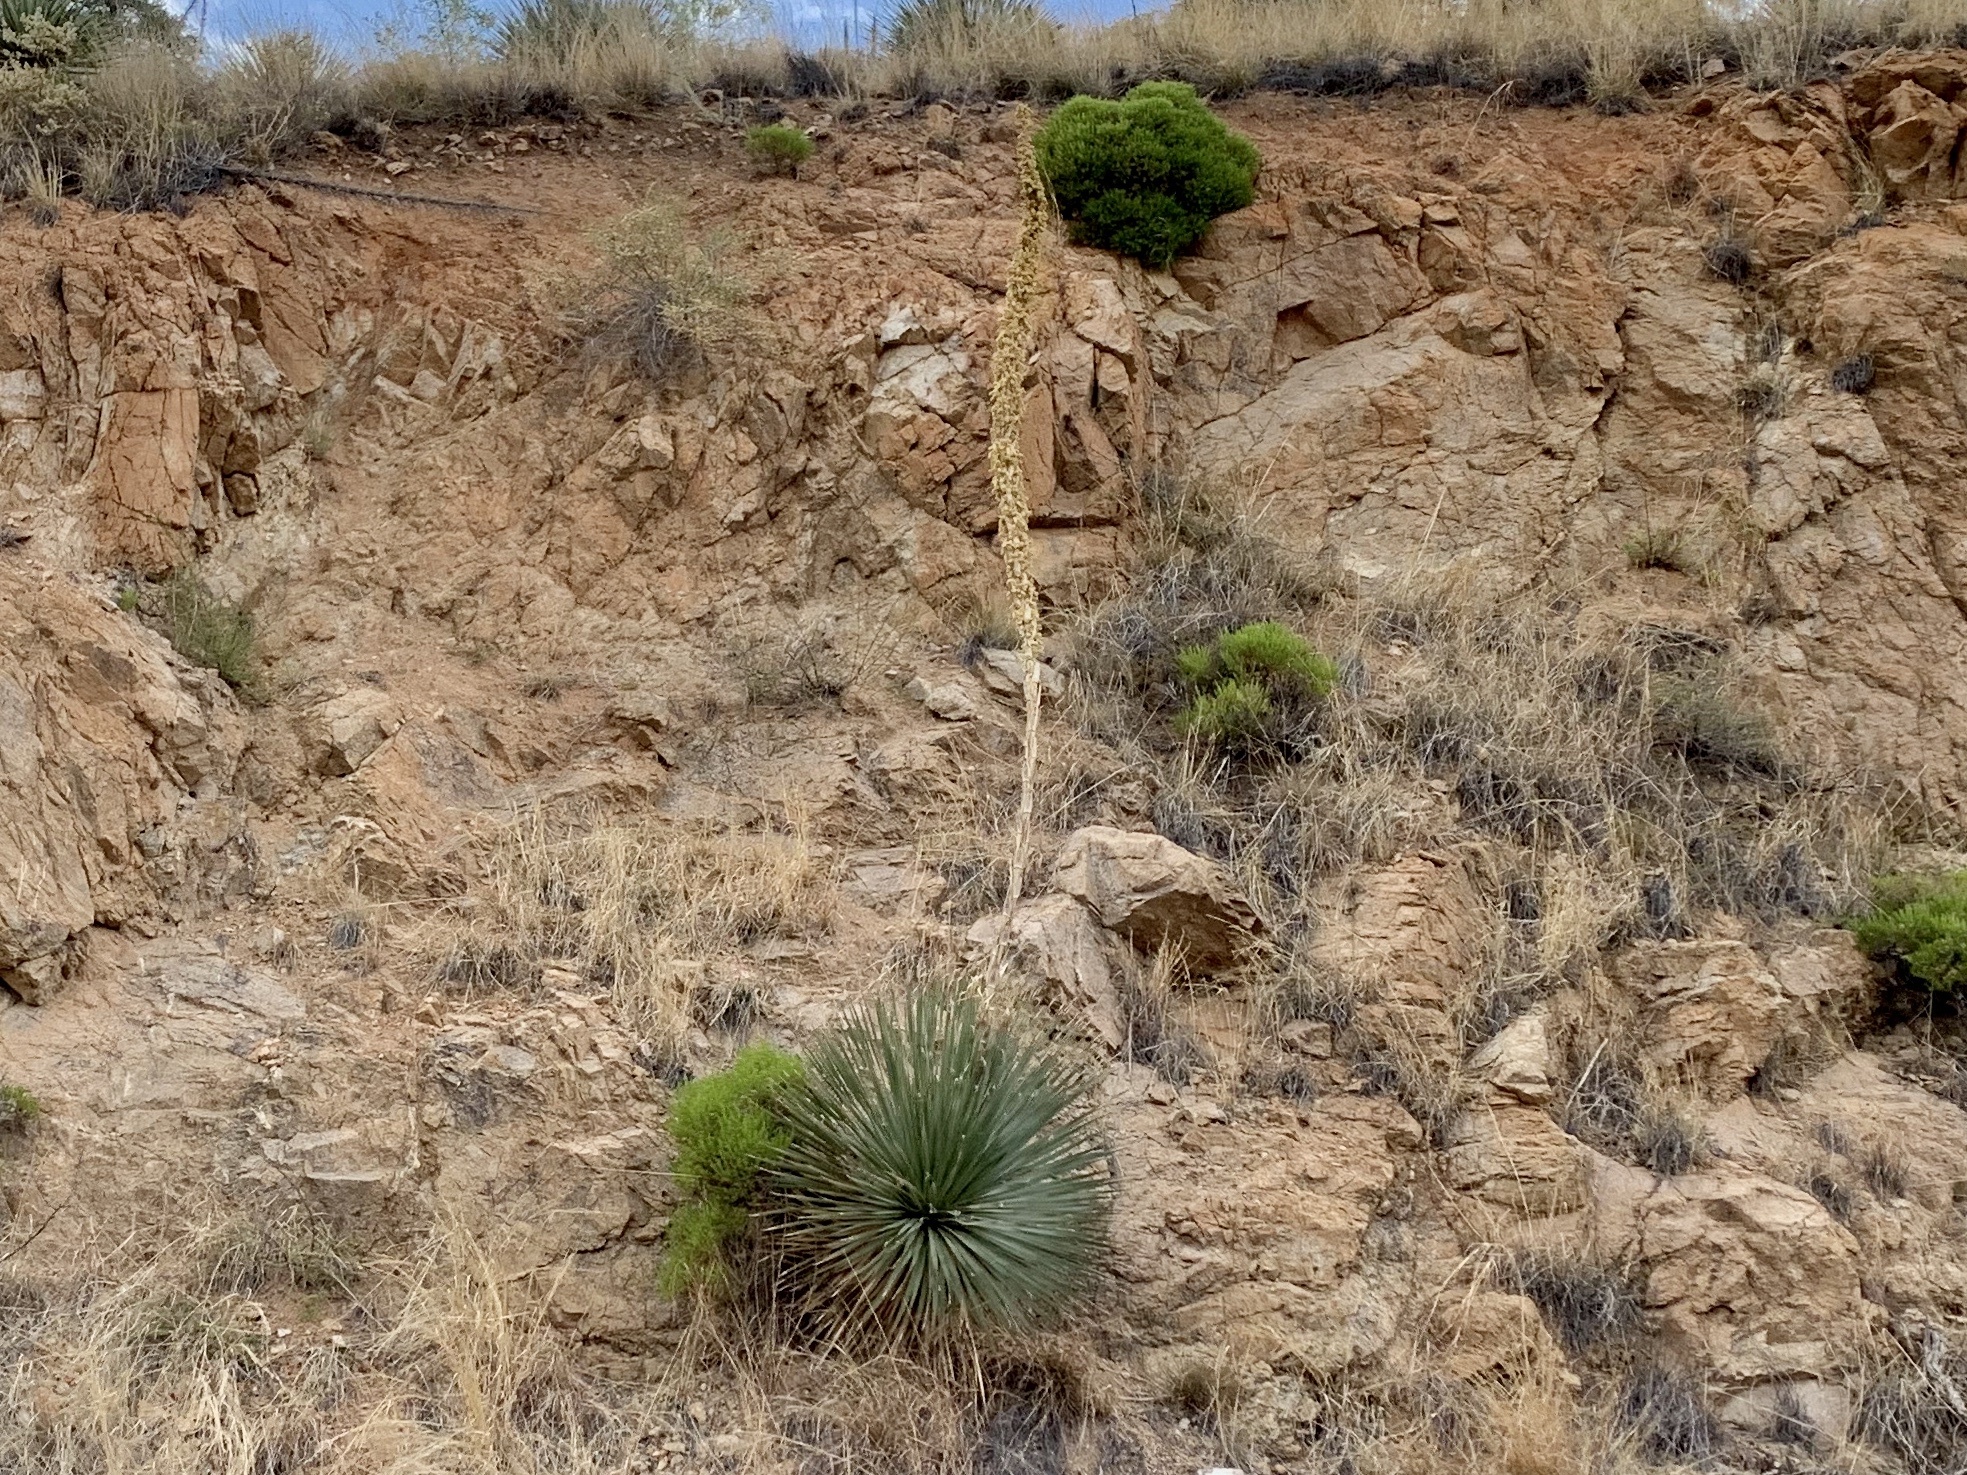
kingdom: Plantae
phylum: Tracheophyta
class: Liliopsida
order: Asparagales
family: Asparagaceae
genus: Dasylirion
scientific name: Dasylirion wheeleri
